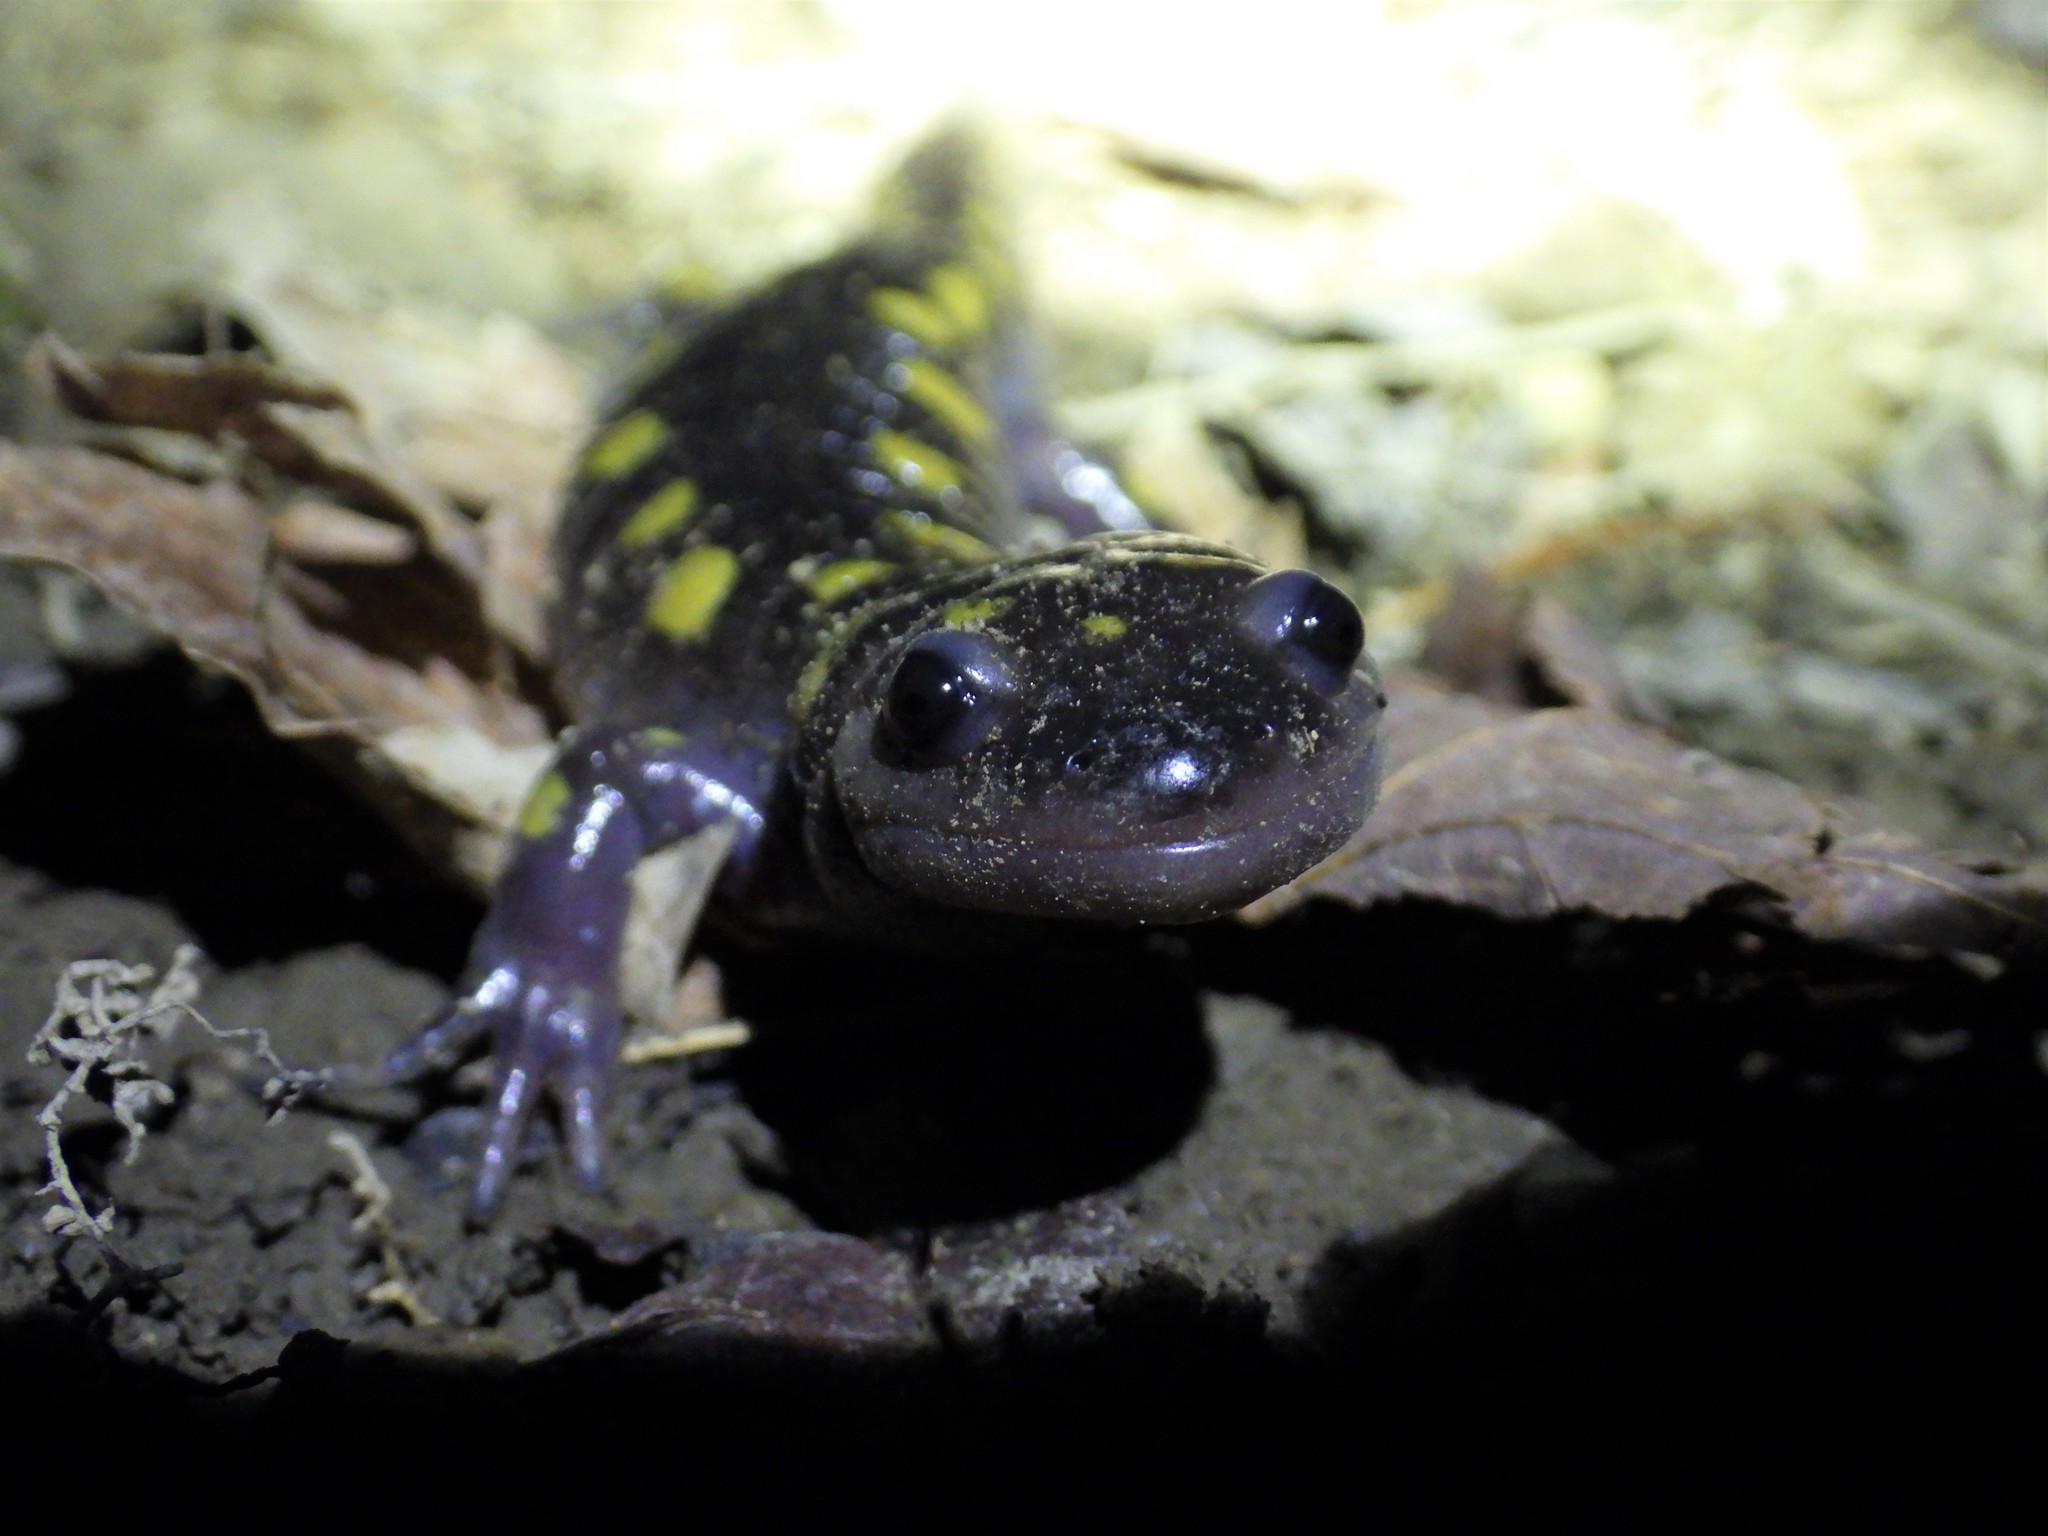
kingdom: Animalia
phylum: Chordata
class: Amphibia
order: Caudata
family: Ambystomatidae
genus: Ambystoma
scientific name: Ambystoma maculatum
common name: Spotted salamander
